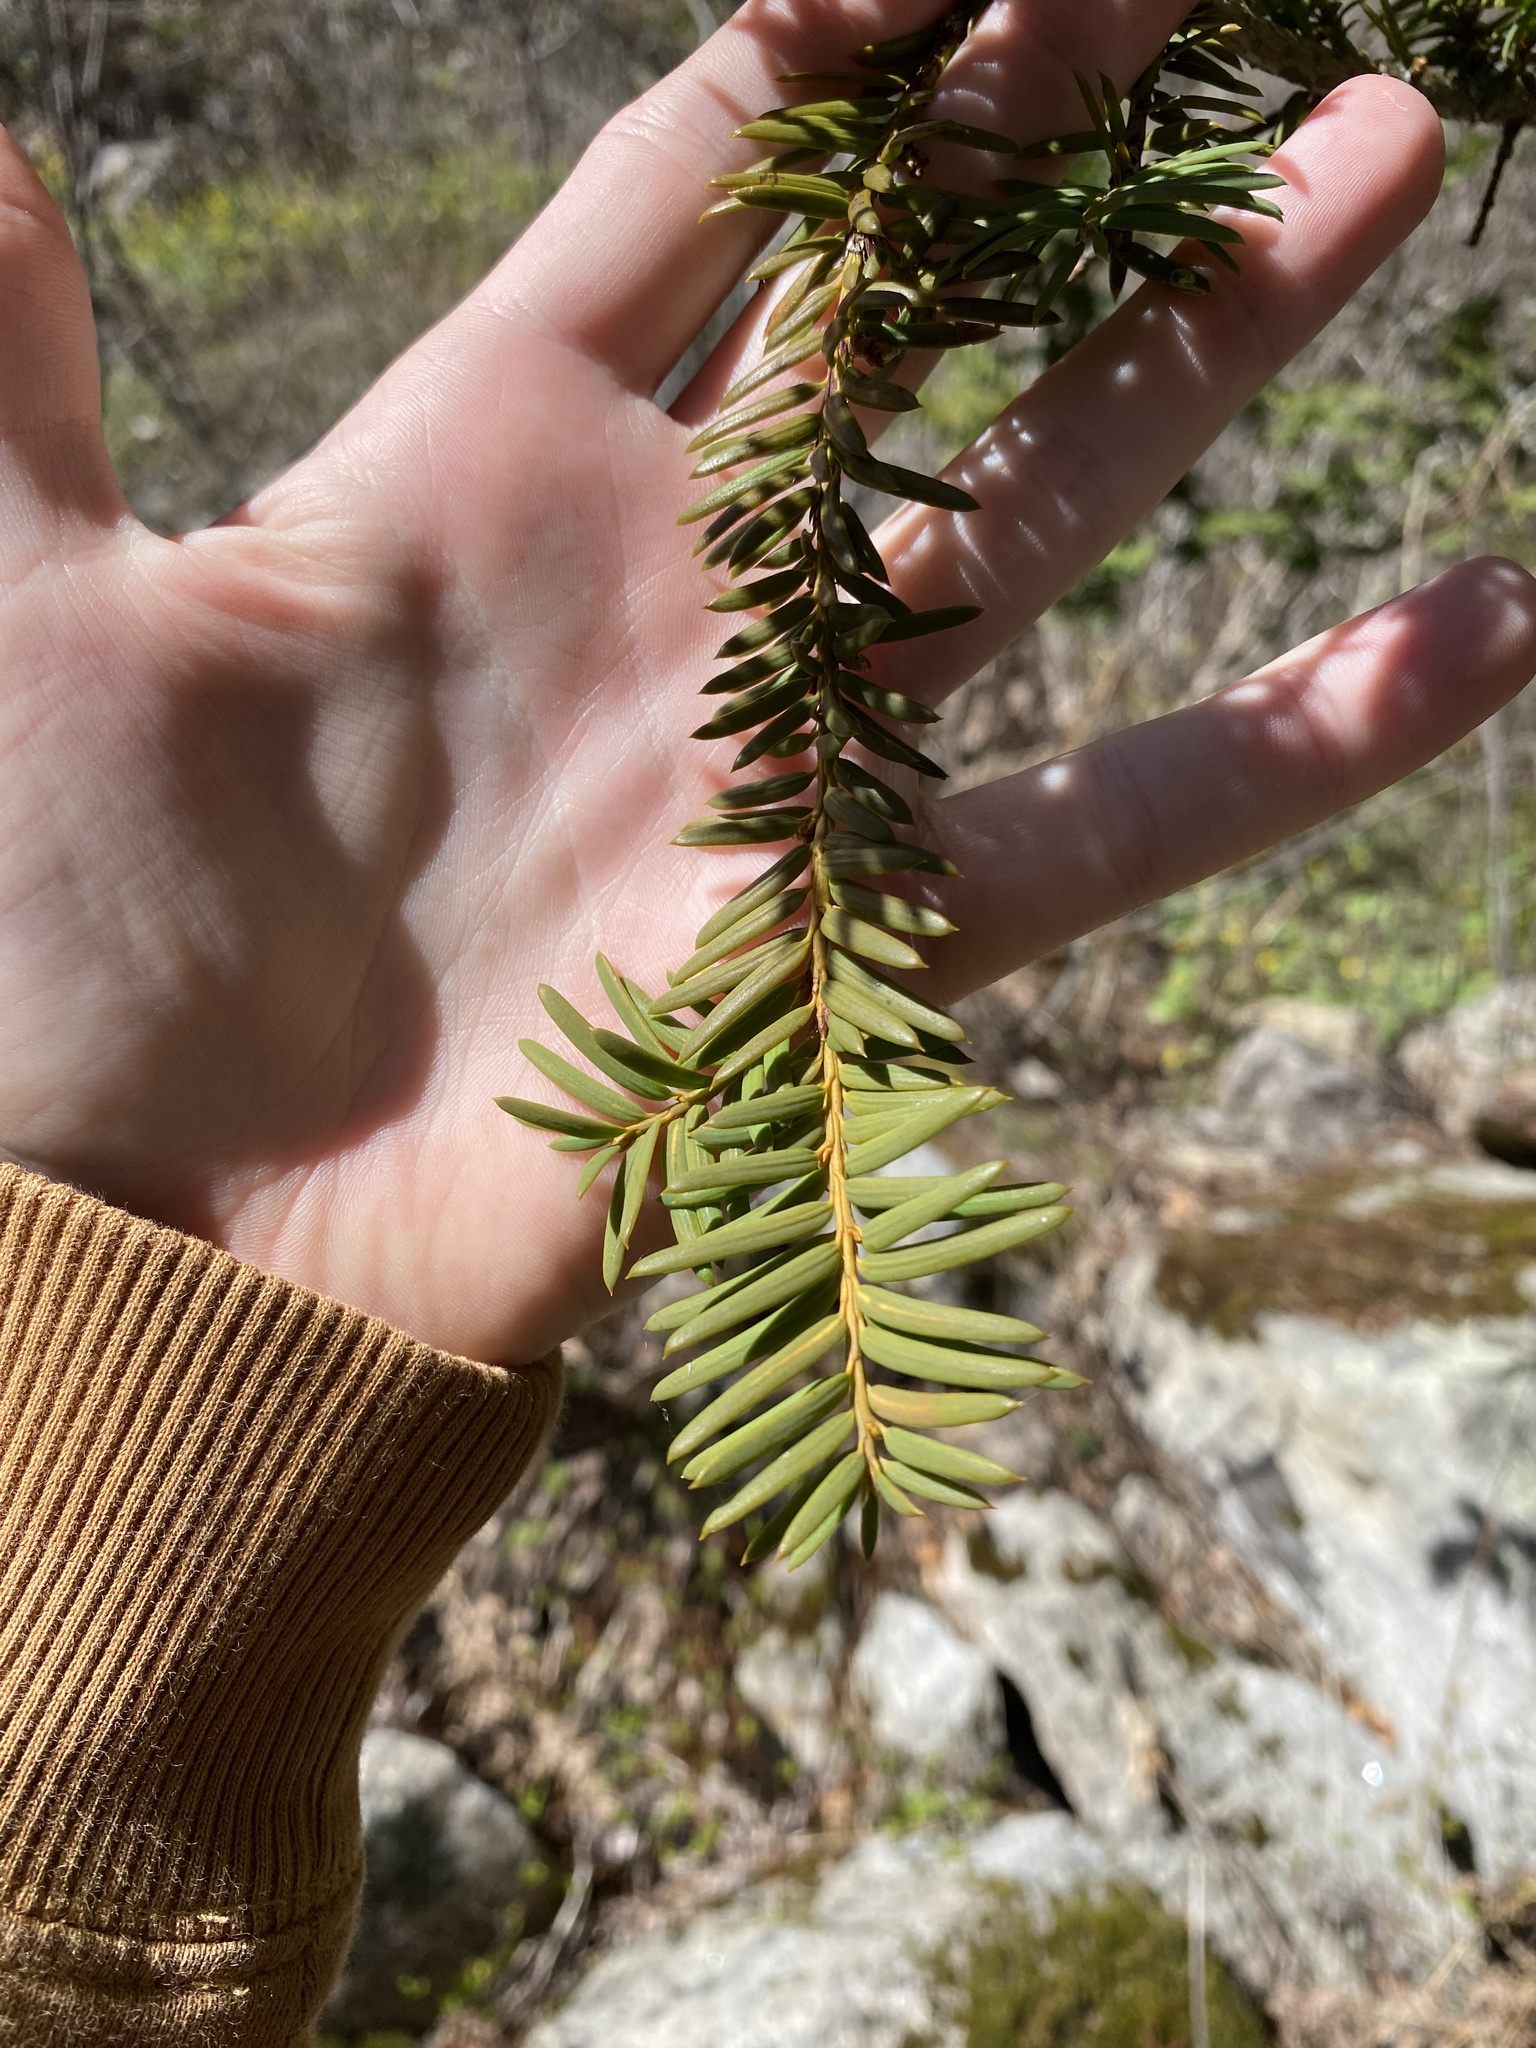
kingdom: Plantae
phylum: Tracheophyta
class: Pinopsida
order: Pinales
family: Taxaceae
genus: Taxus
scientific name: Taxus brevifolia
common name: Pacific yew
